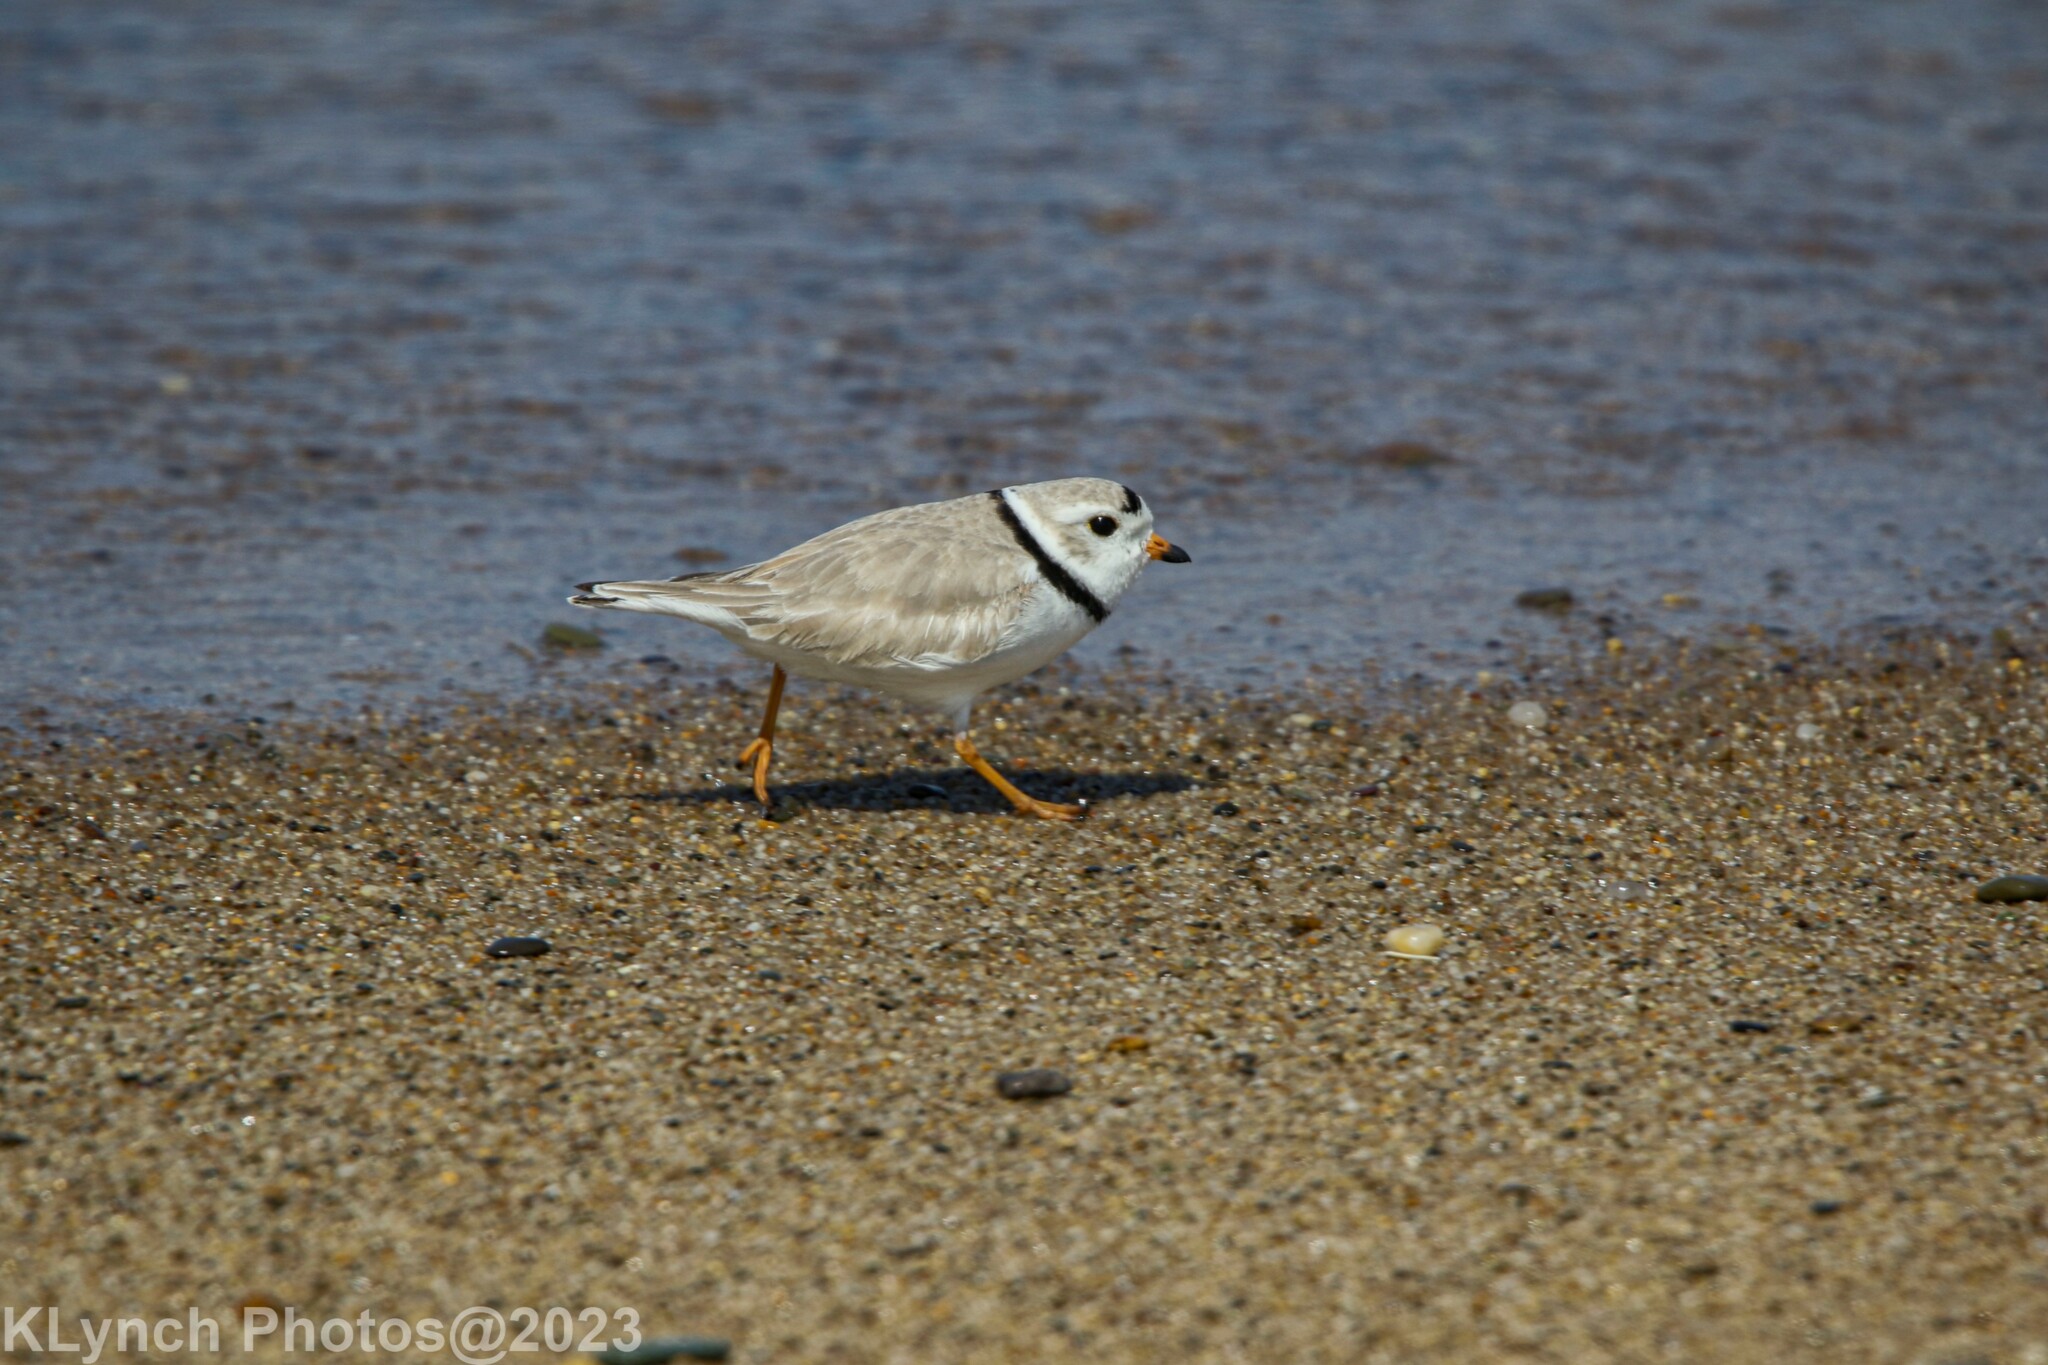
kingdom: Animalia
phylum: Chordata
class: Aves
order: Charadriiformes
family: Charadriidae
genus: Charadrius
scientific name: Charadrius melodus
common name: Piping plover
